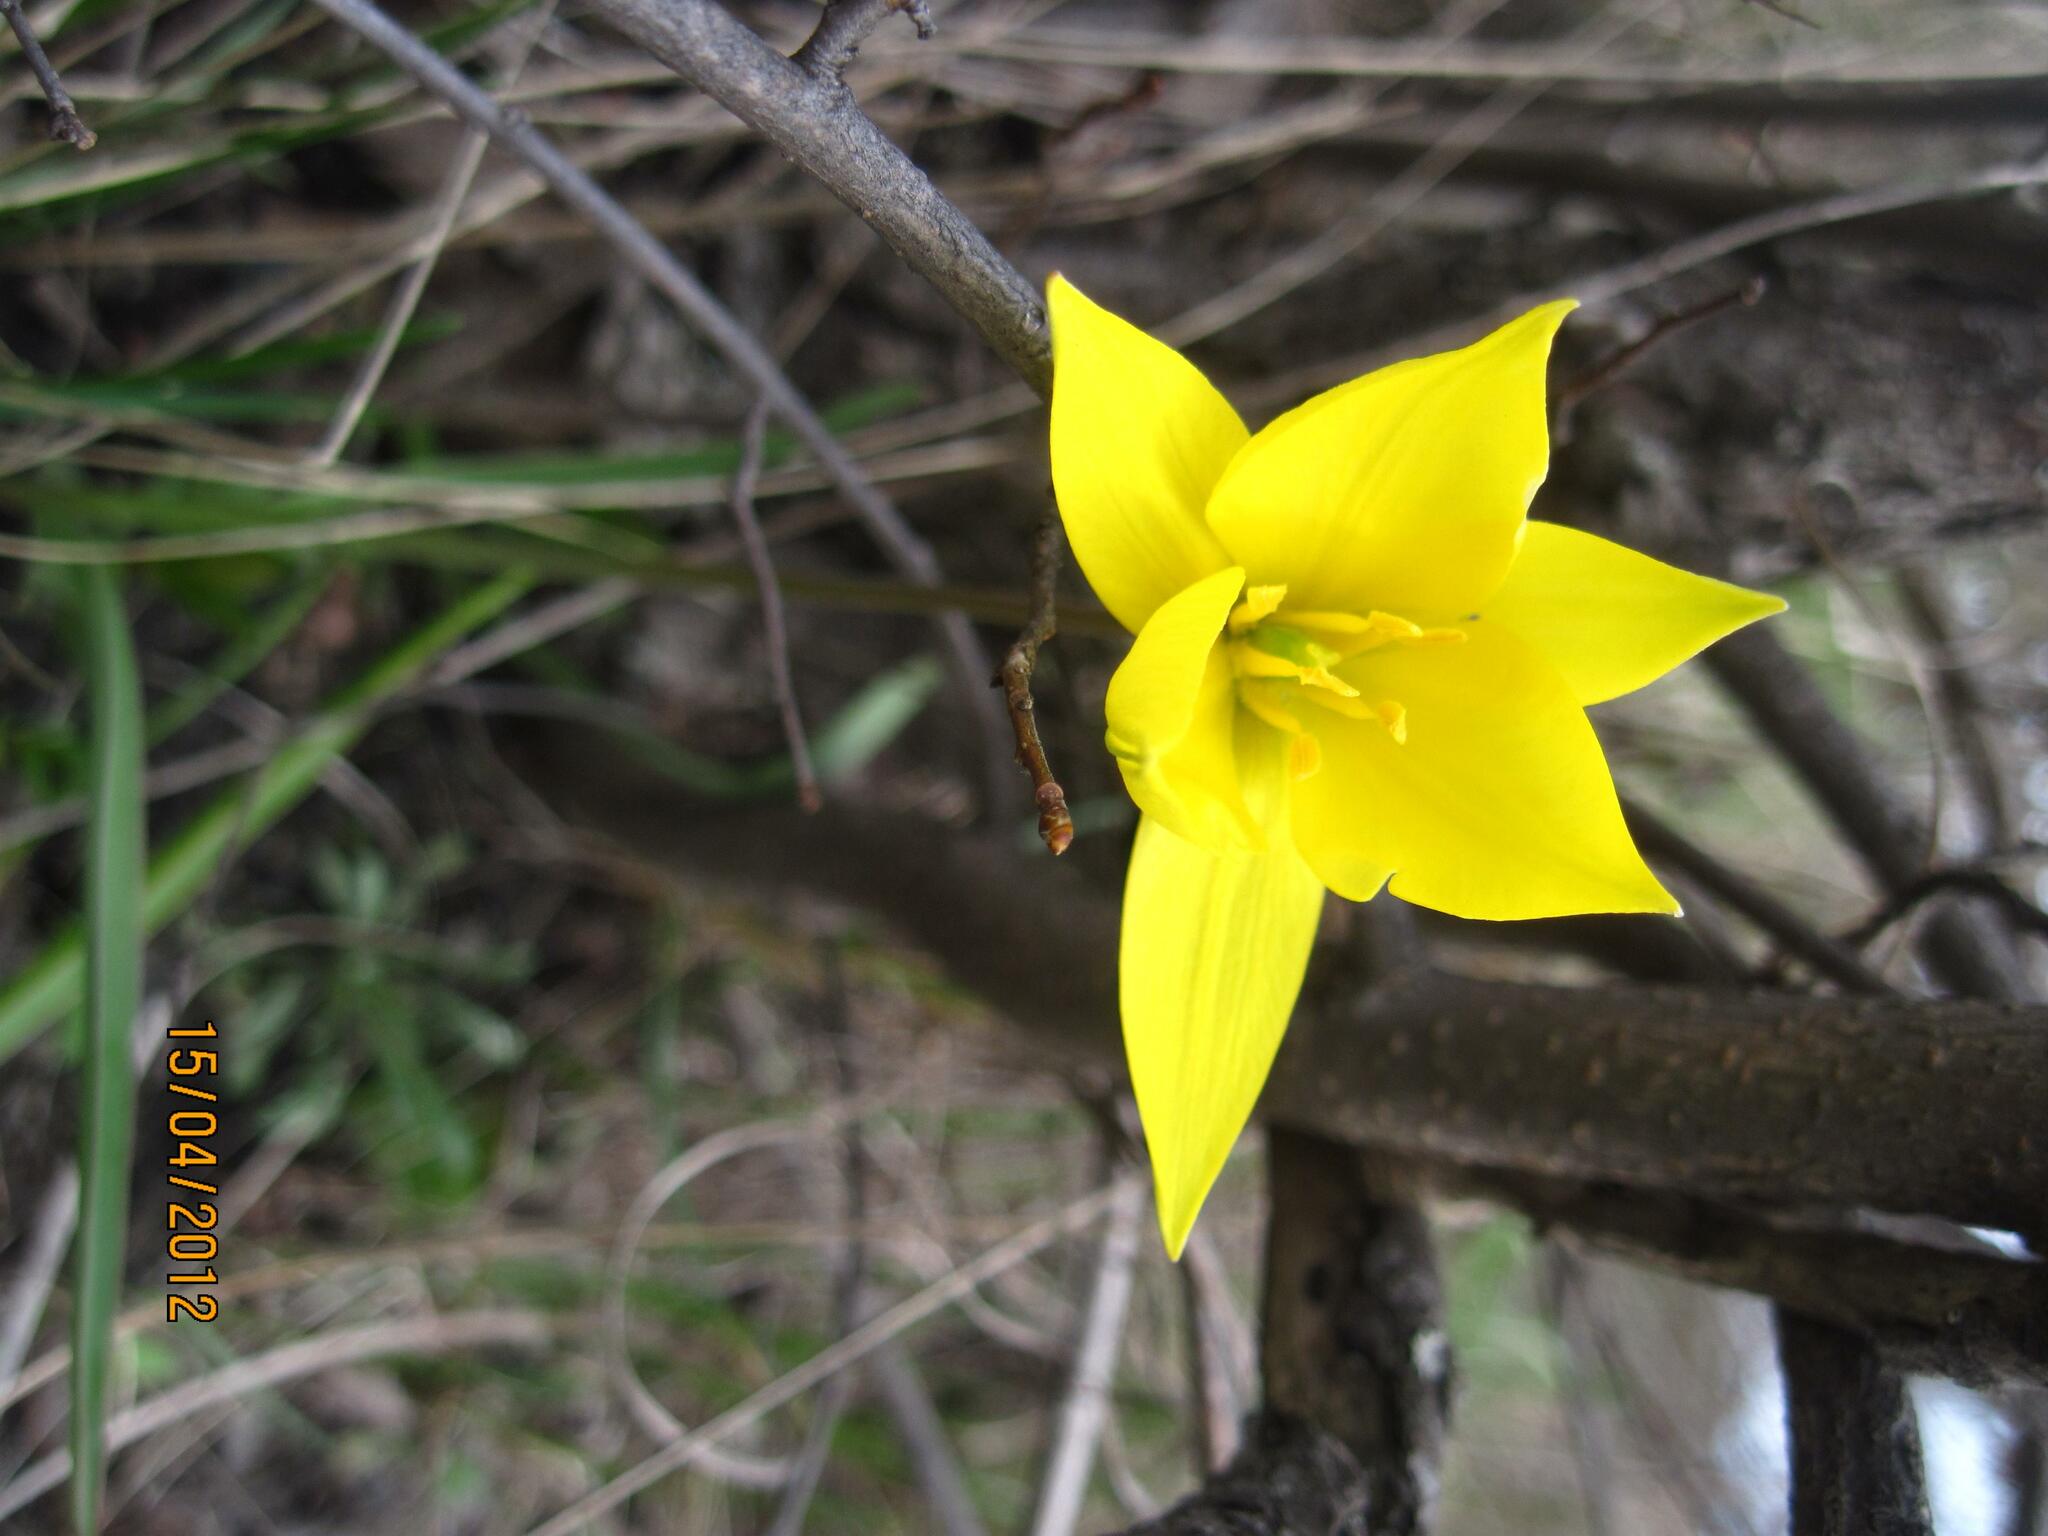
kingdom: Plantae
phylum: Tracheophyta
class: Liliopsida
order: Liliales
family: Liliaceae
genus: Tulipa
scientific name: Tulipa sylvestris
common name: Wild tulip
